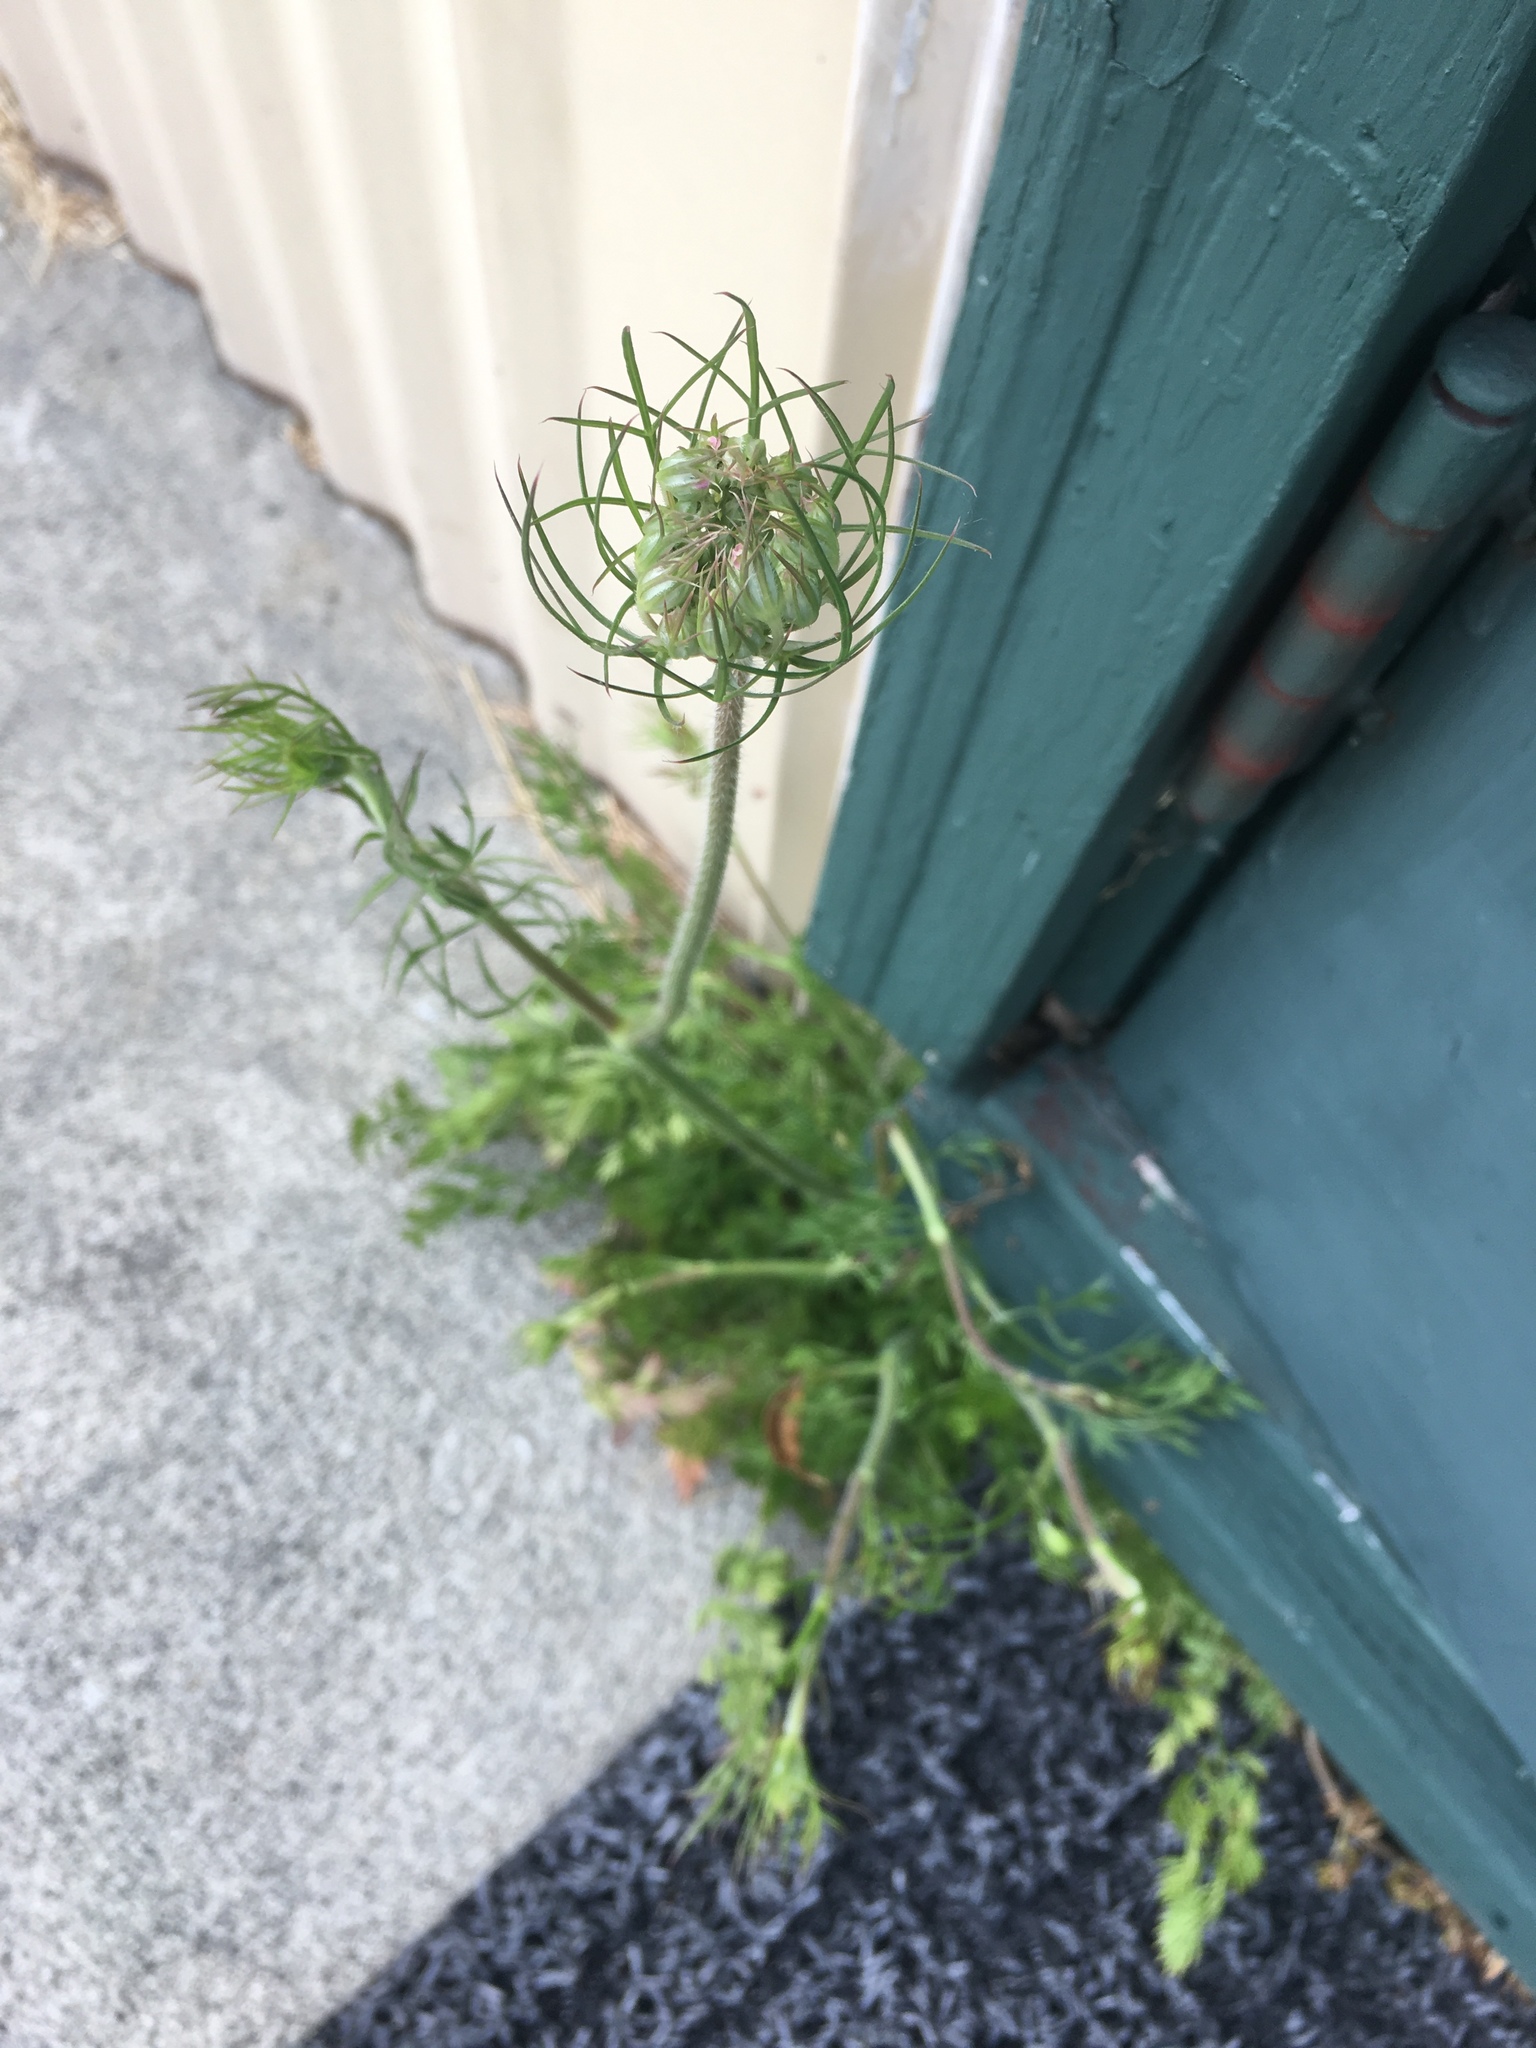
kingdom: Plantae
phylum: Tracheophyta
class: Magnoliopsida
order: Apiales
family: Apiaceae
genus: Daucus
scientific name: Daucus carota
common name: Wild carrot
